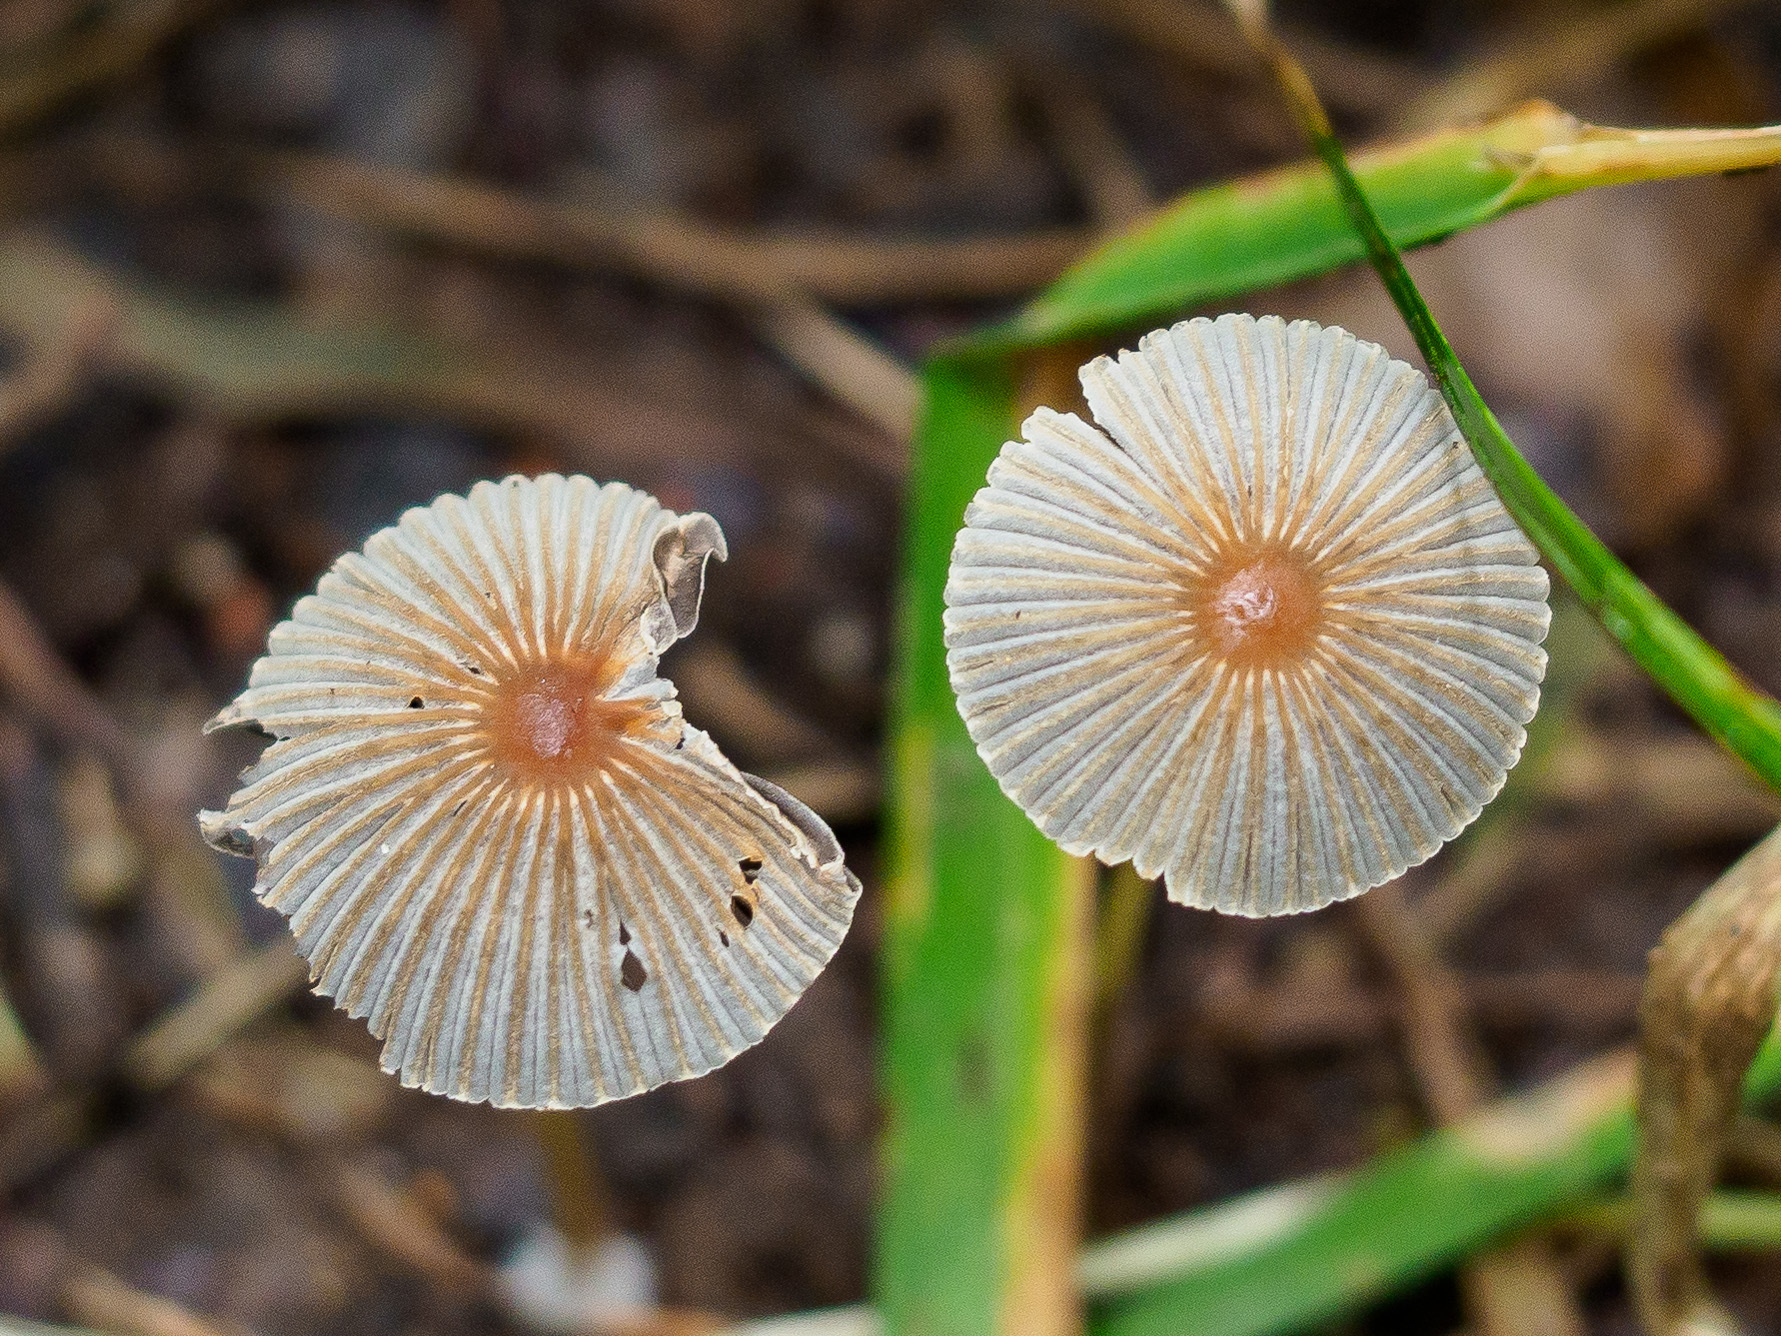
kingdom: Fungi
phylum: Basidiomycota
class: Agaricomycetes
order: Agaricales
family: Psathyrellaceae
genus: Parasola
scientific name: Parasola kuehneri
